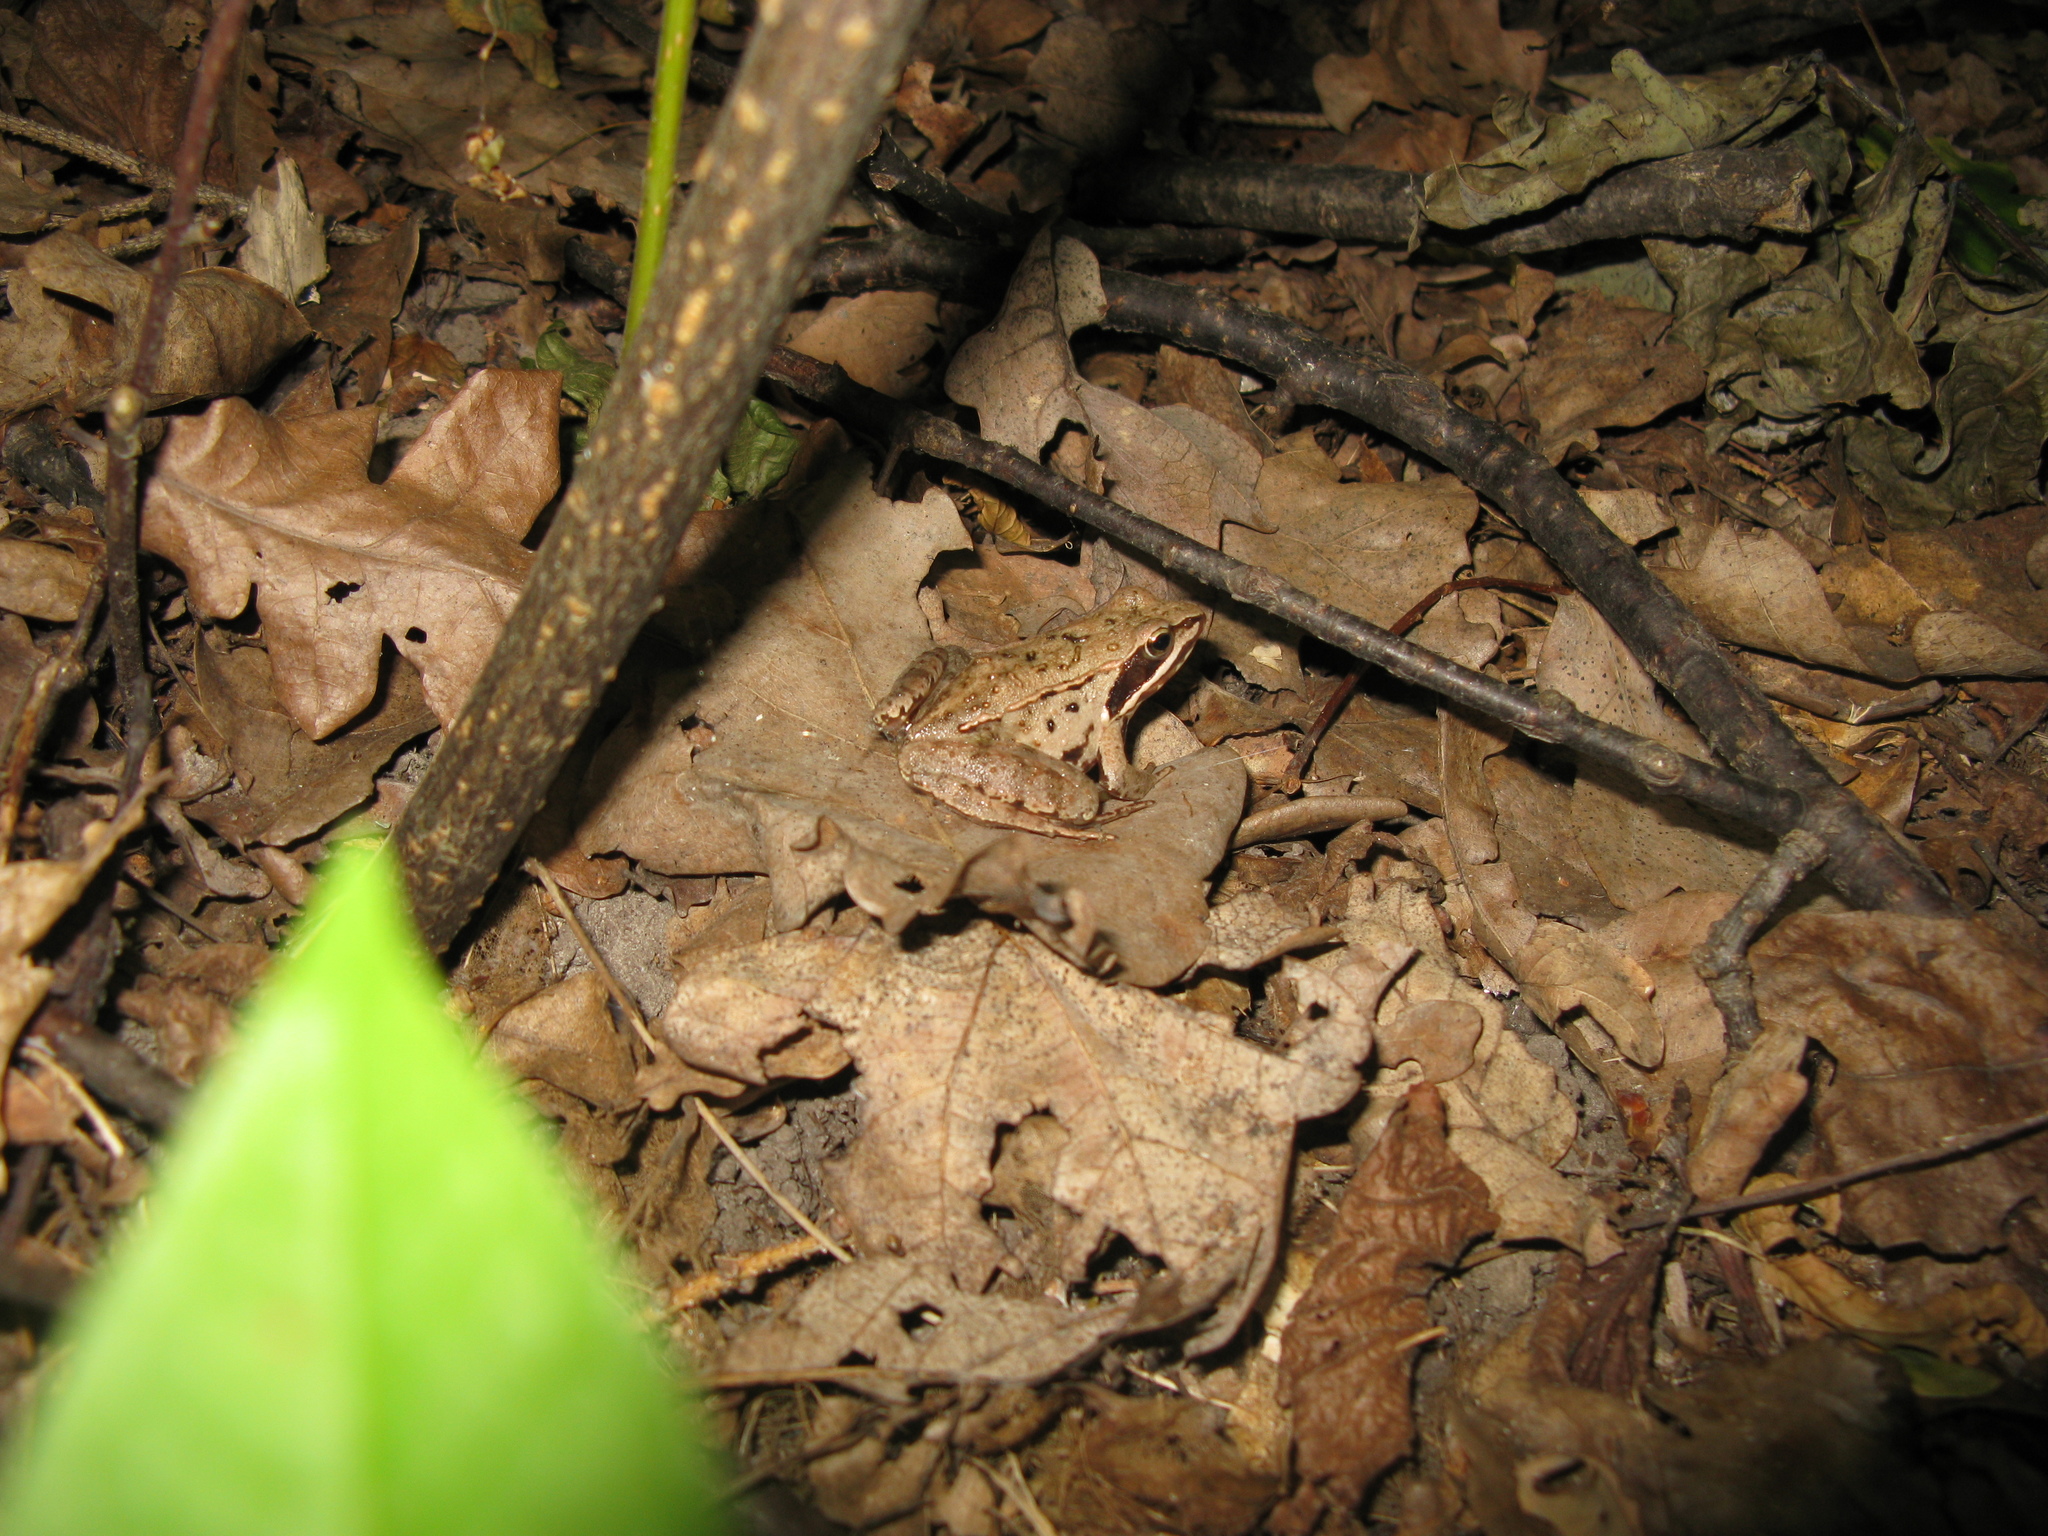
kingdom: Animalia
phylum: Chordata
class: Amphibia
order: Anura
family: Ranidae
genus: Rana
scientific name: Rana arvalis
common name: Moor frog
